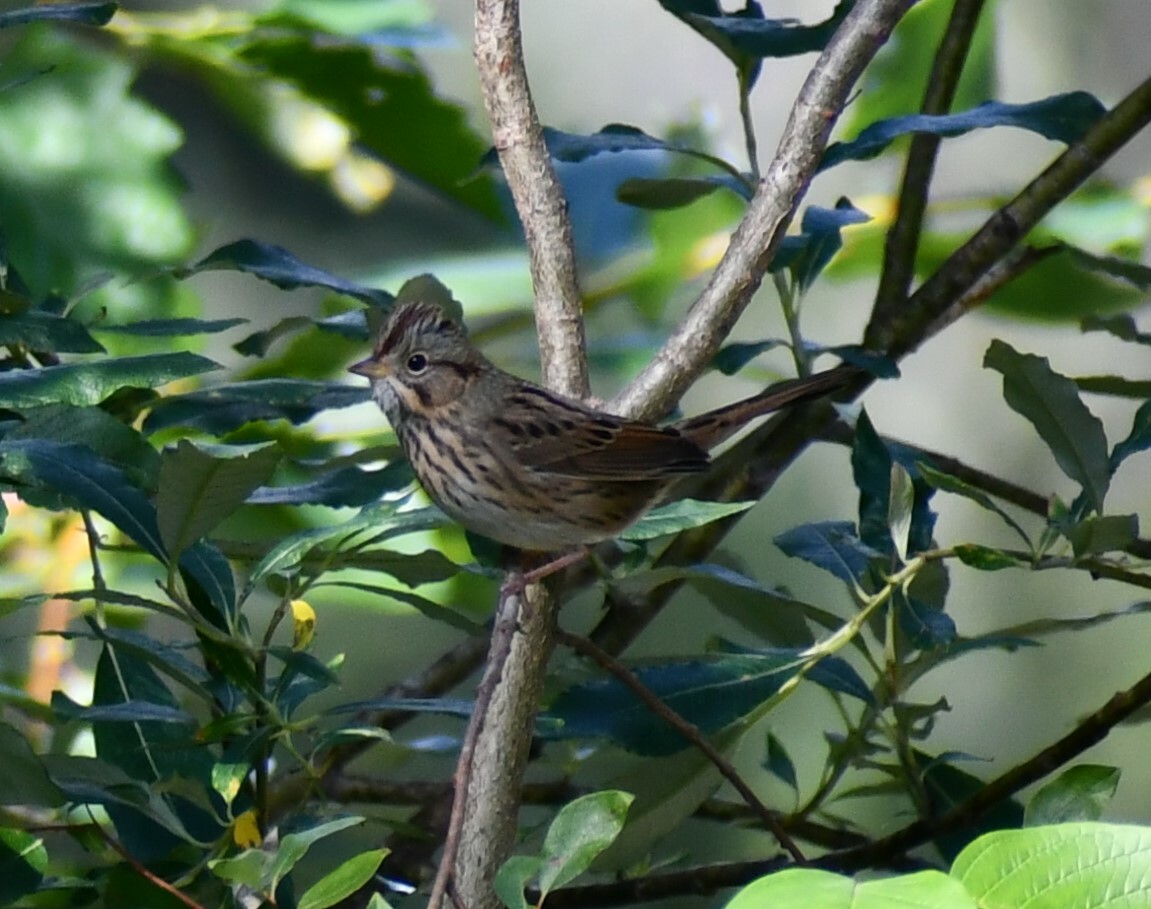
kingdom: Animalia
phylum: Chordata
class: Aves
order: Passeriformes
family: Passerellidae
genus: Melospiza
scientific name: Melospiza lincolnii
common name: Lincoln's sparrow
